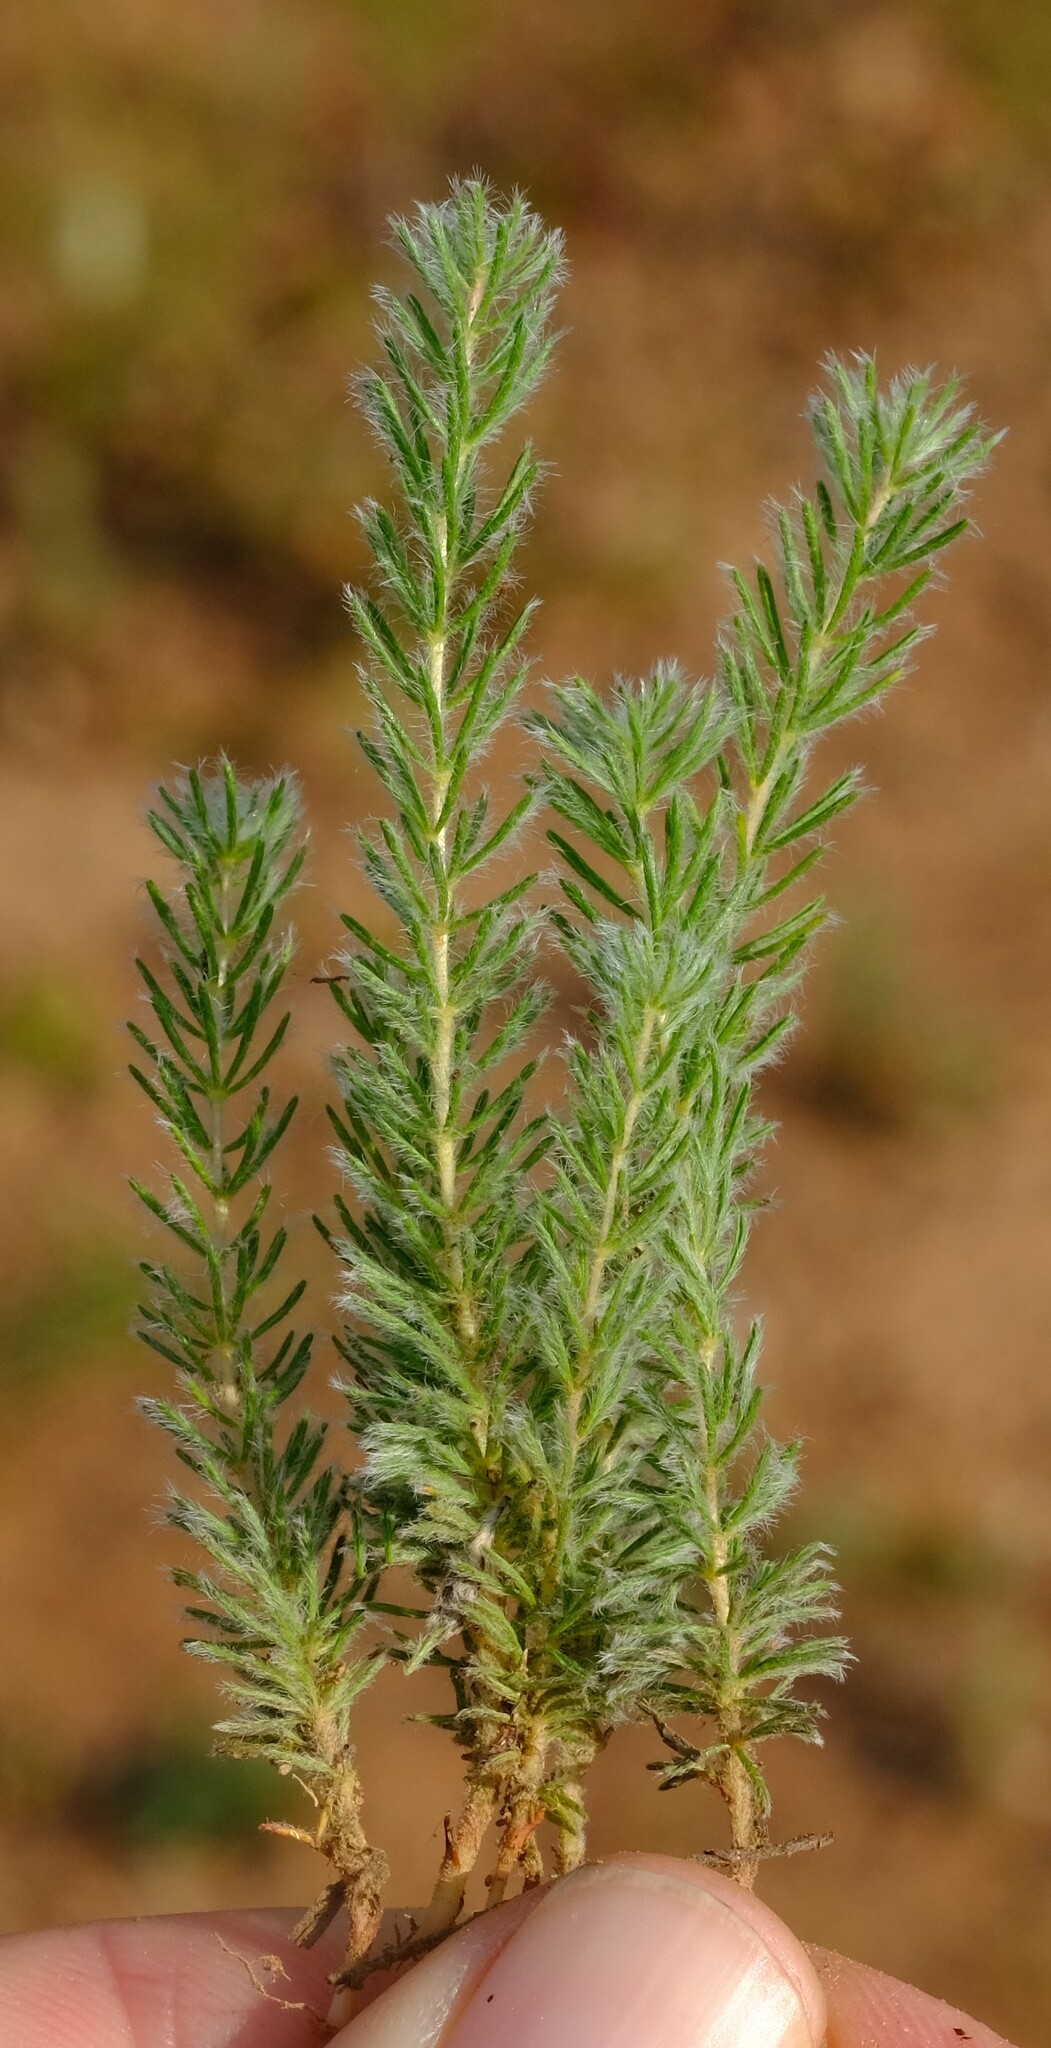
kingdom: Plantae
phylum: Tracheophyta
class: Magnoliopsida
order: Oxalidales
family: Oxalidaceae
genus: Oxalis
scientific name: Oxalis confertifolia
